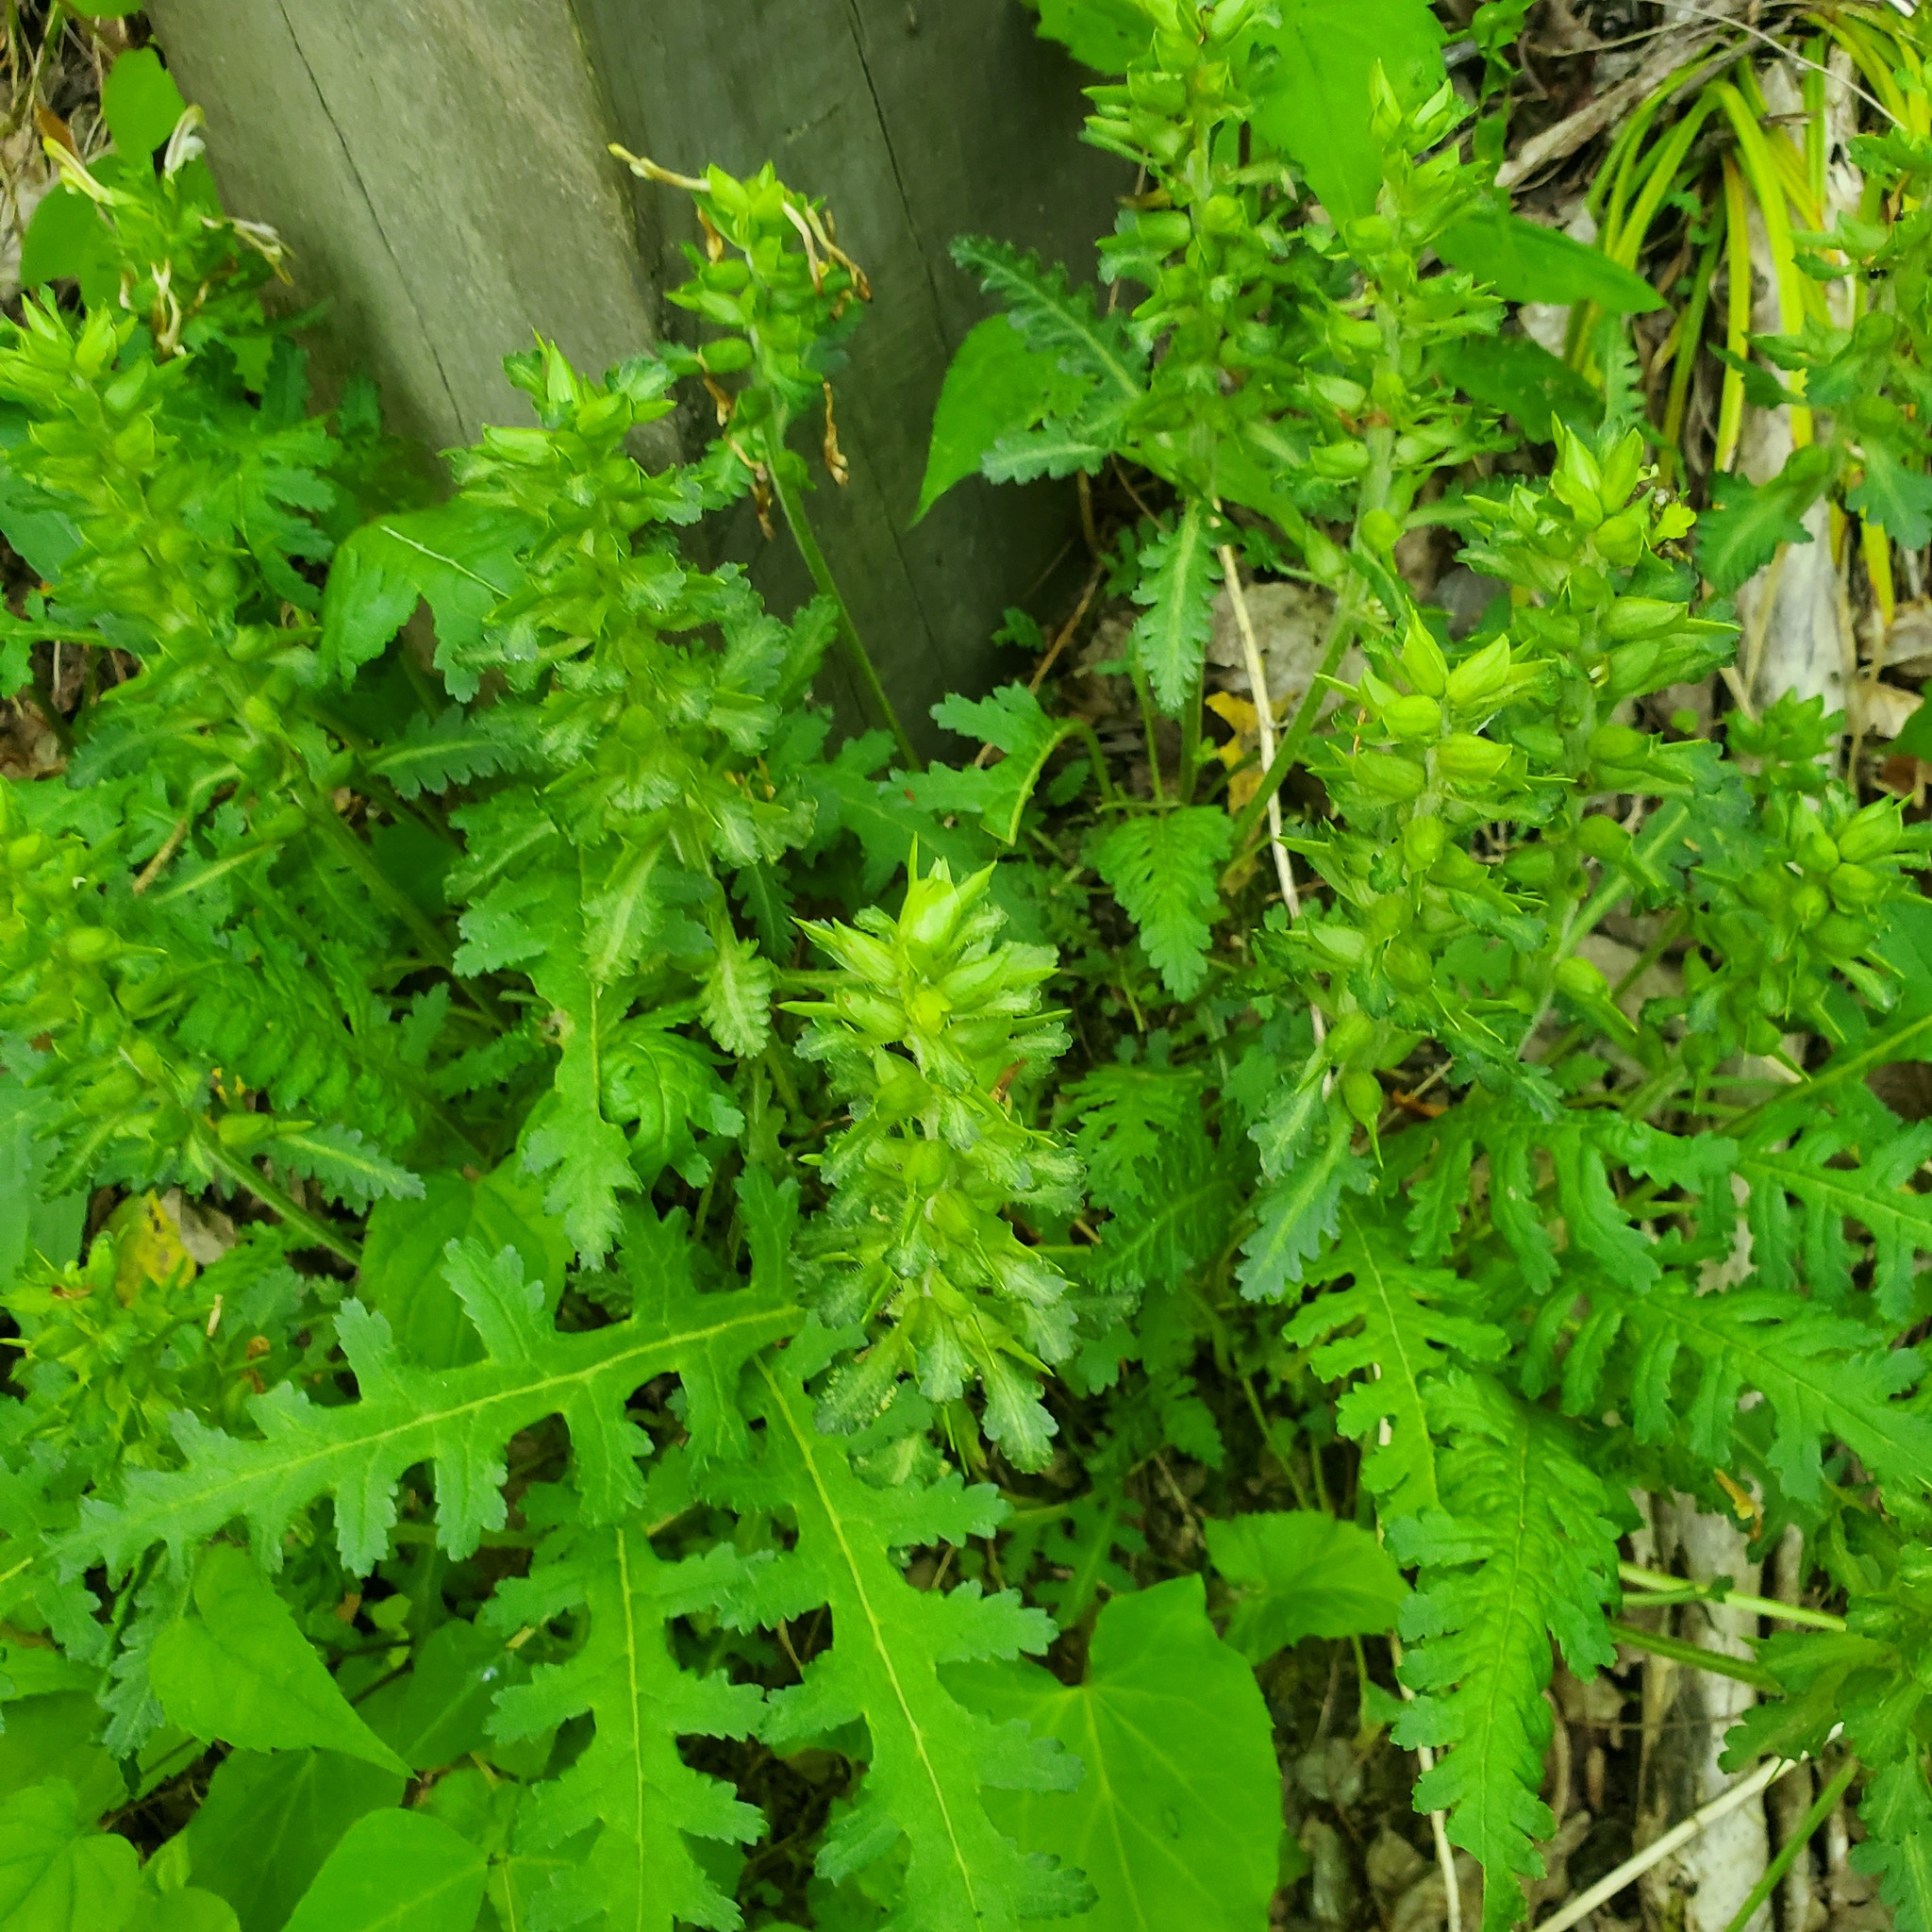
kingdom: Plantae
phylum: Tracheophyta
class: Magnoliopsida
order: Lamiales
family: Orobanchaceae
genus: Pedicularis
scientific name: Pedicularis canadensis
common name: Early lousewort
